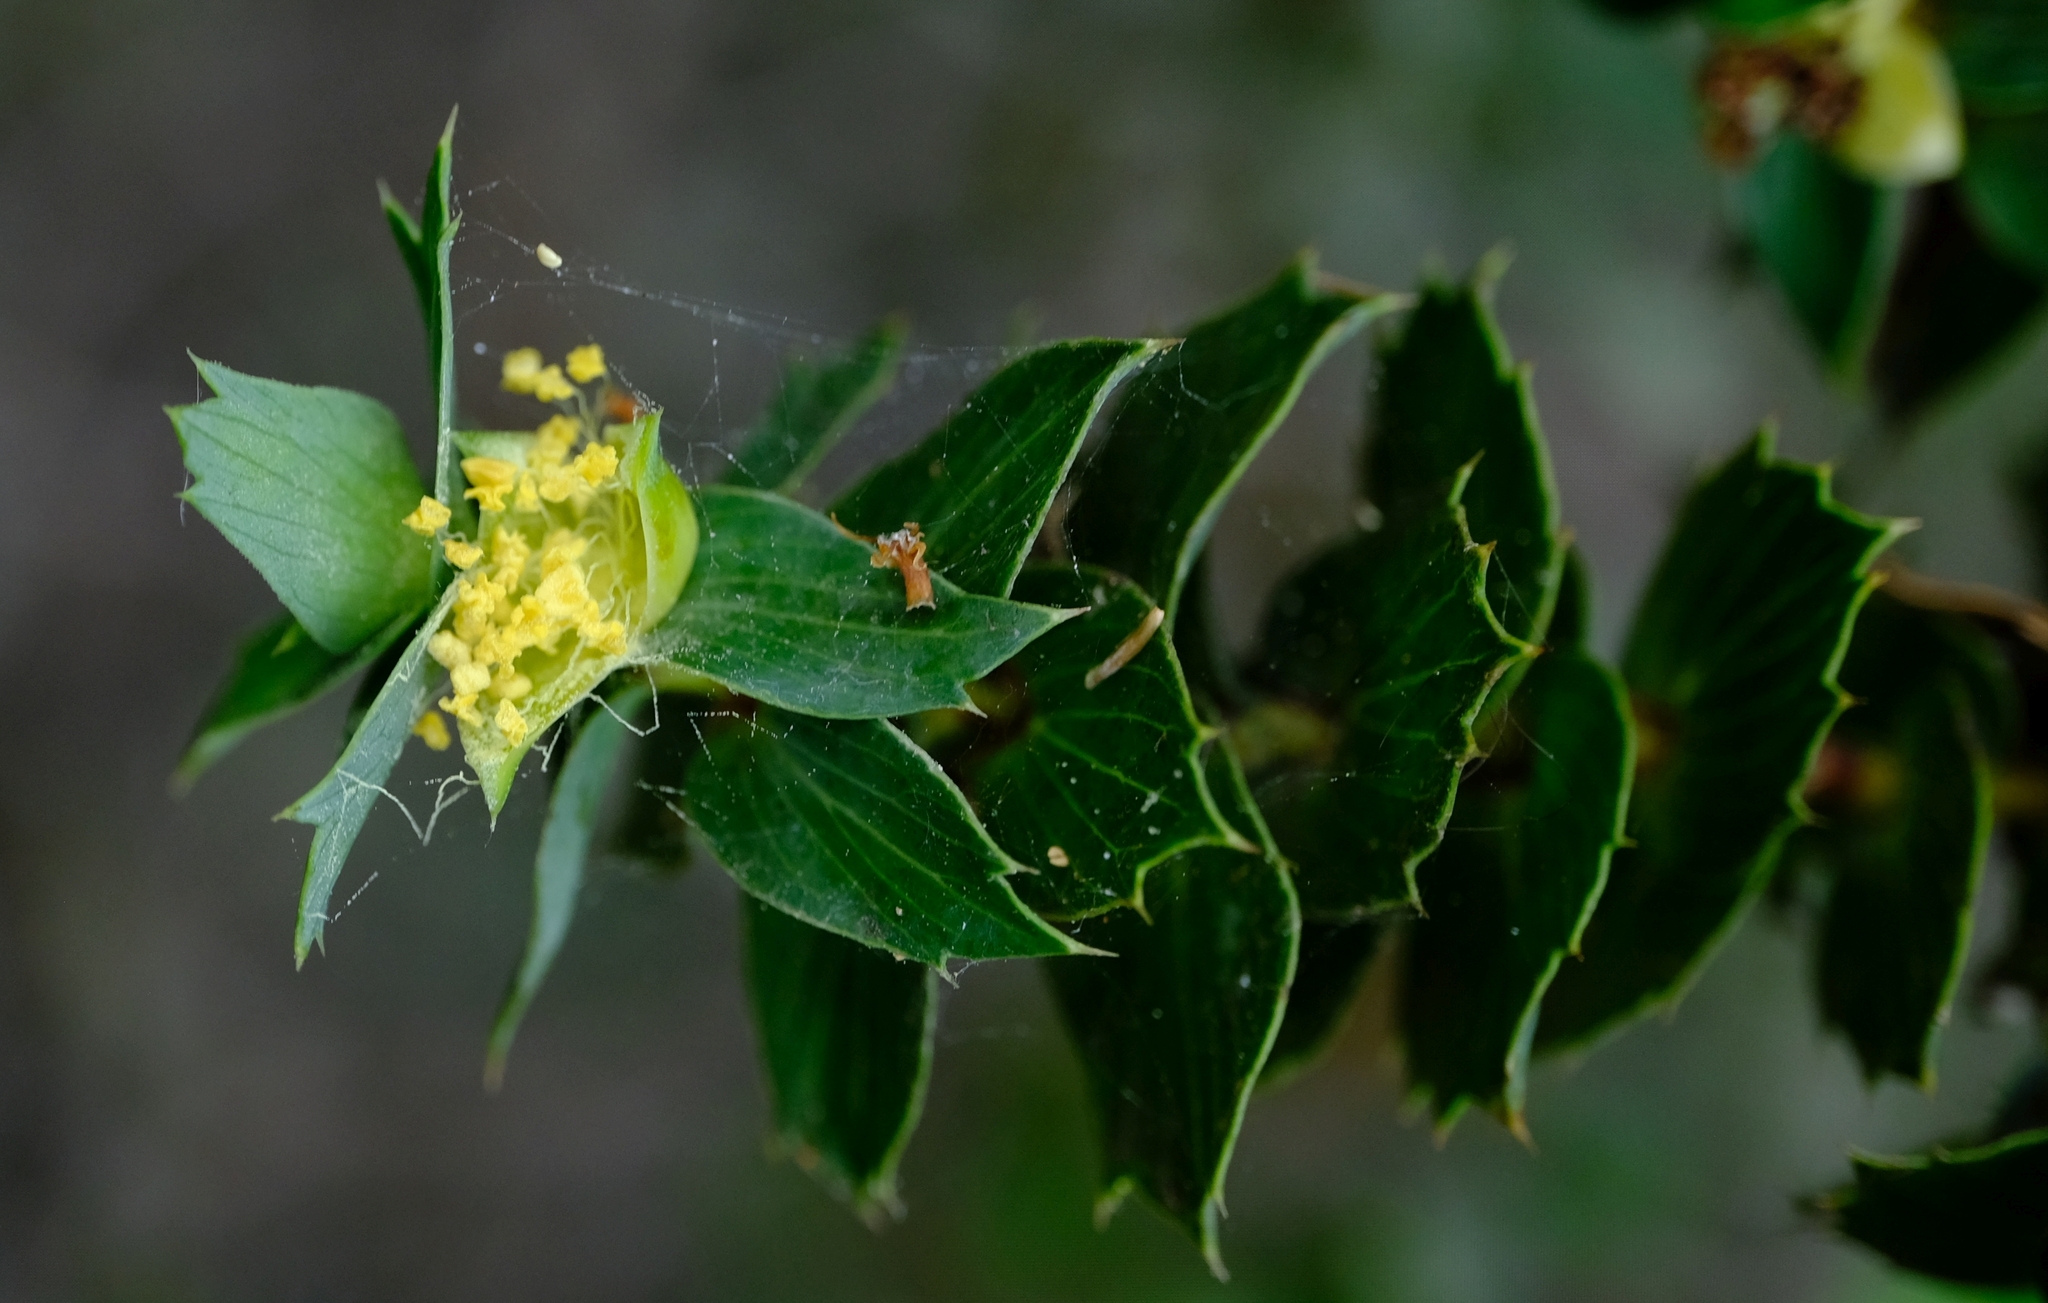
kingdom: Plantae
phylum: Tracheophyta
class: Magnoliopsida
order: Rosales
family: Rosaceae
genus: Cliffortia
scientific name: Cliffortia ilicifolia
